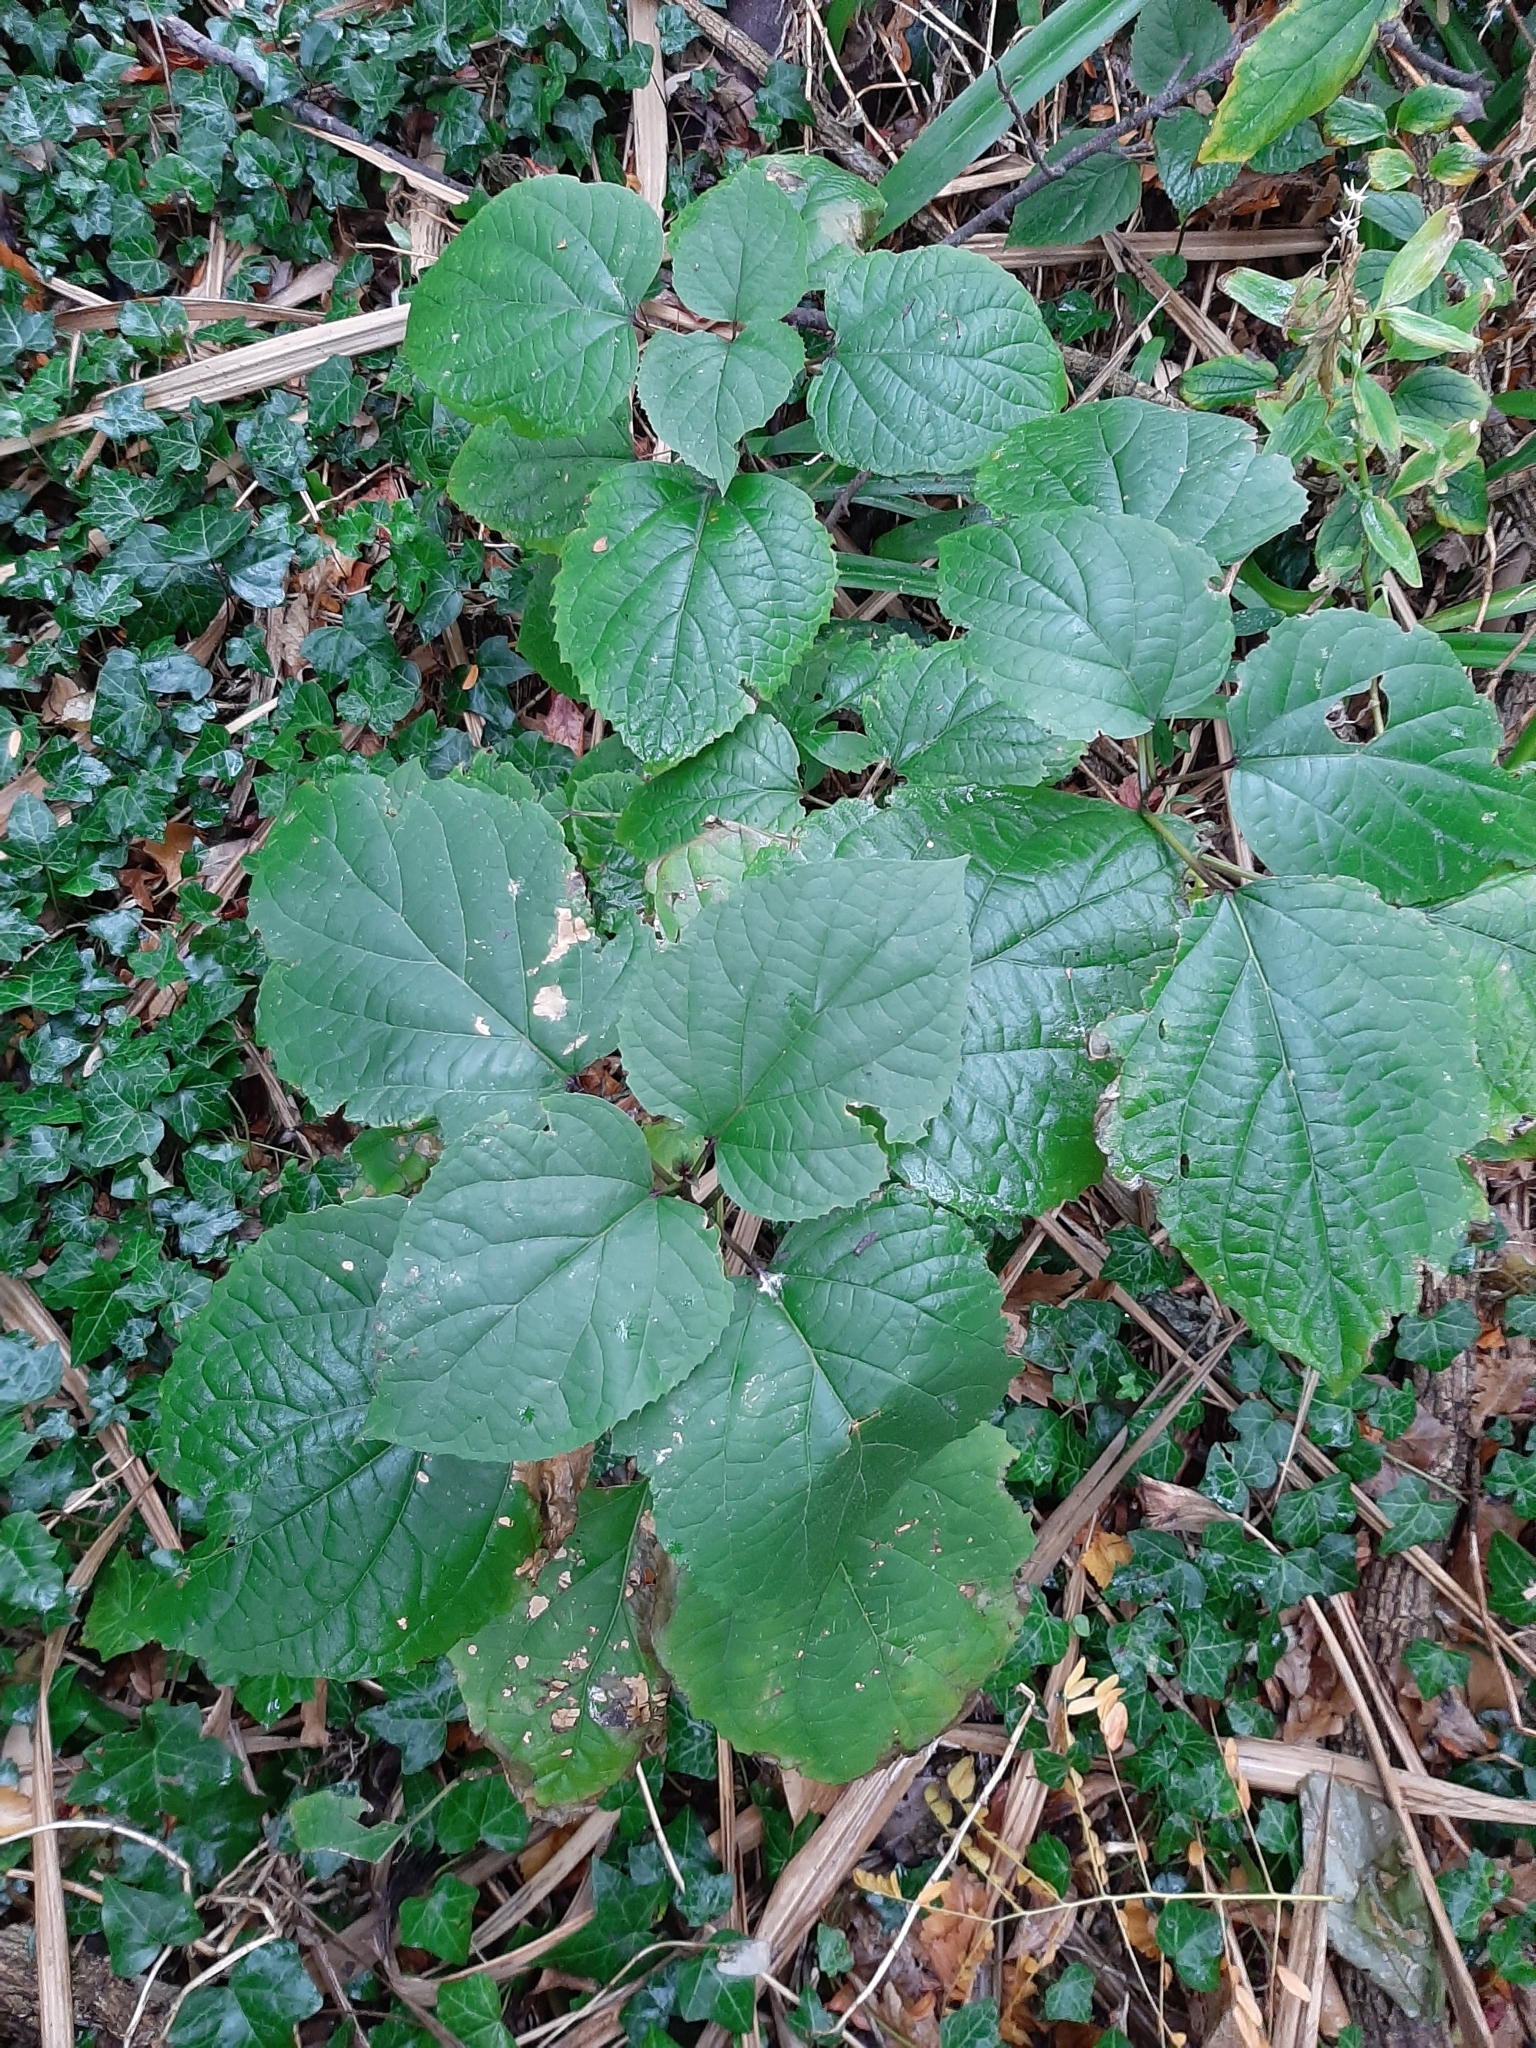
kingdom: Plantae
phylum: Tracheophyta
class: Magnoliopsida
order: Lamiales
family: Lamiaceae
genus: Clerodendrum
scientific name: Clerodendrum trichotomum
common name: Harlequin glorybower
